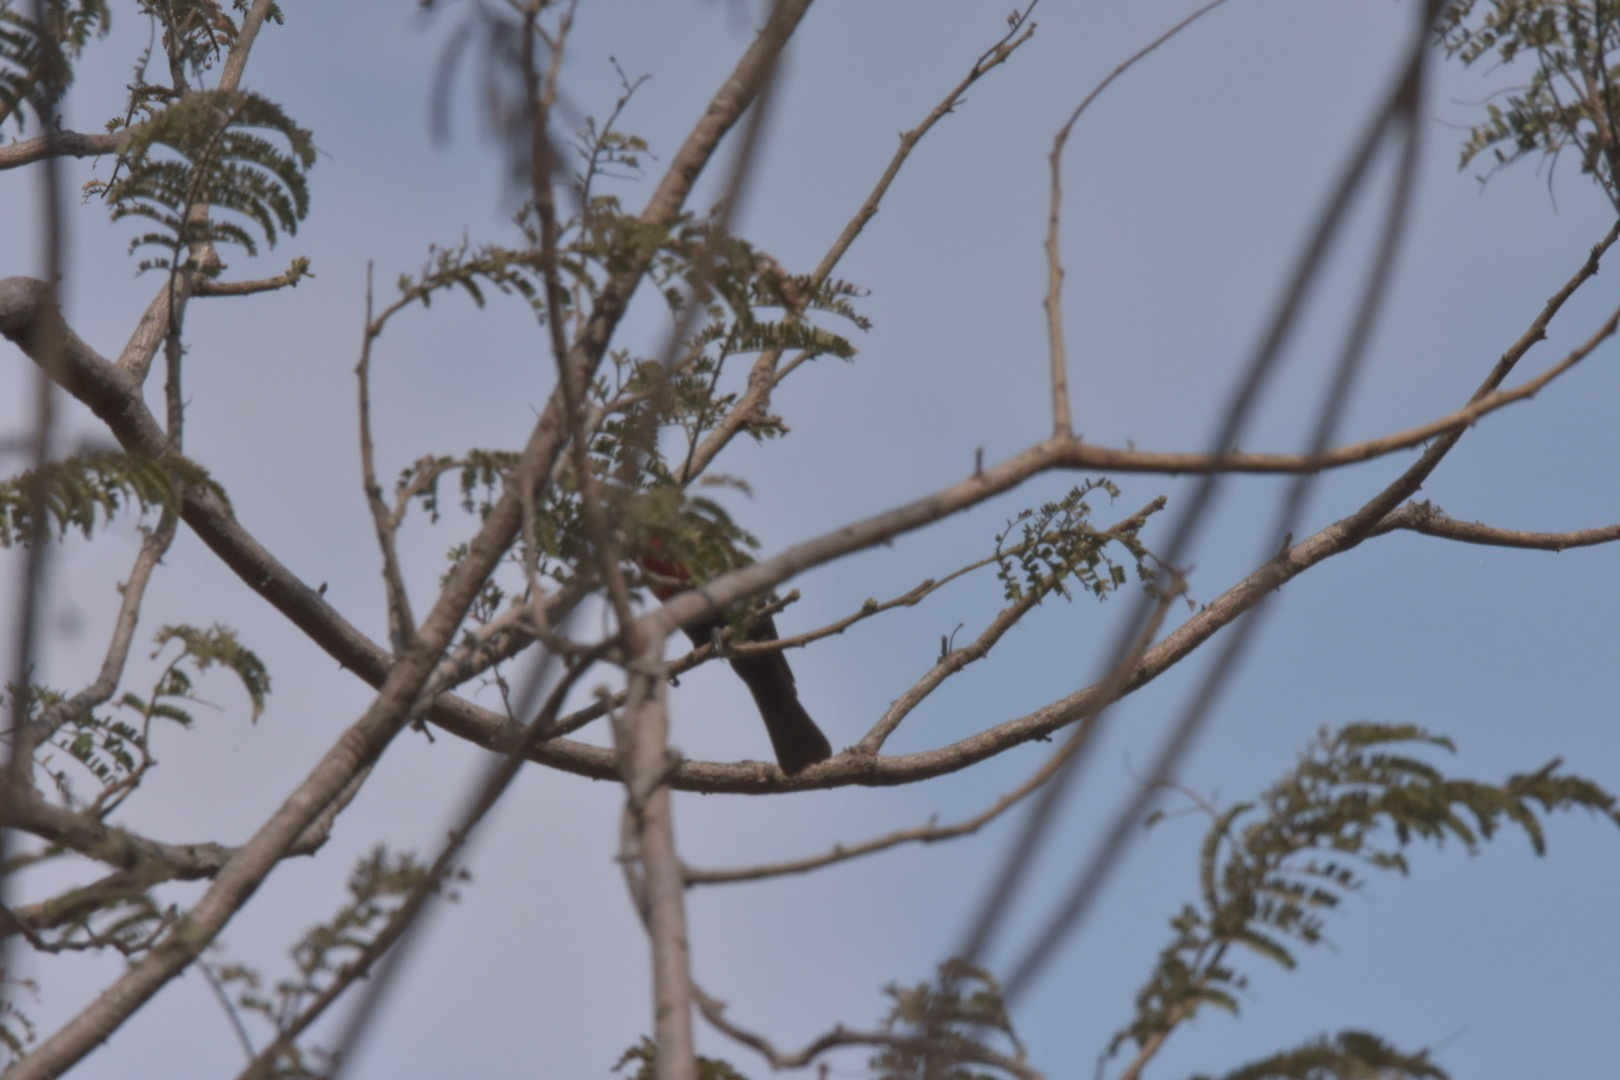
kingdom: Animalia
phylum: Chordata
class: Aves
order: Passeriformes
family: Nectariniidae
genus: Chalcomitra
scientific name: Chalcomitra senegalensis
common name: Scarlet-chested sunbird
